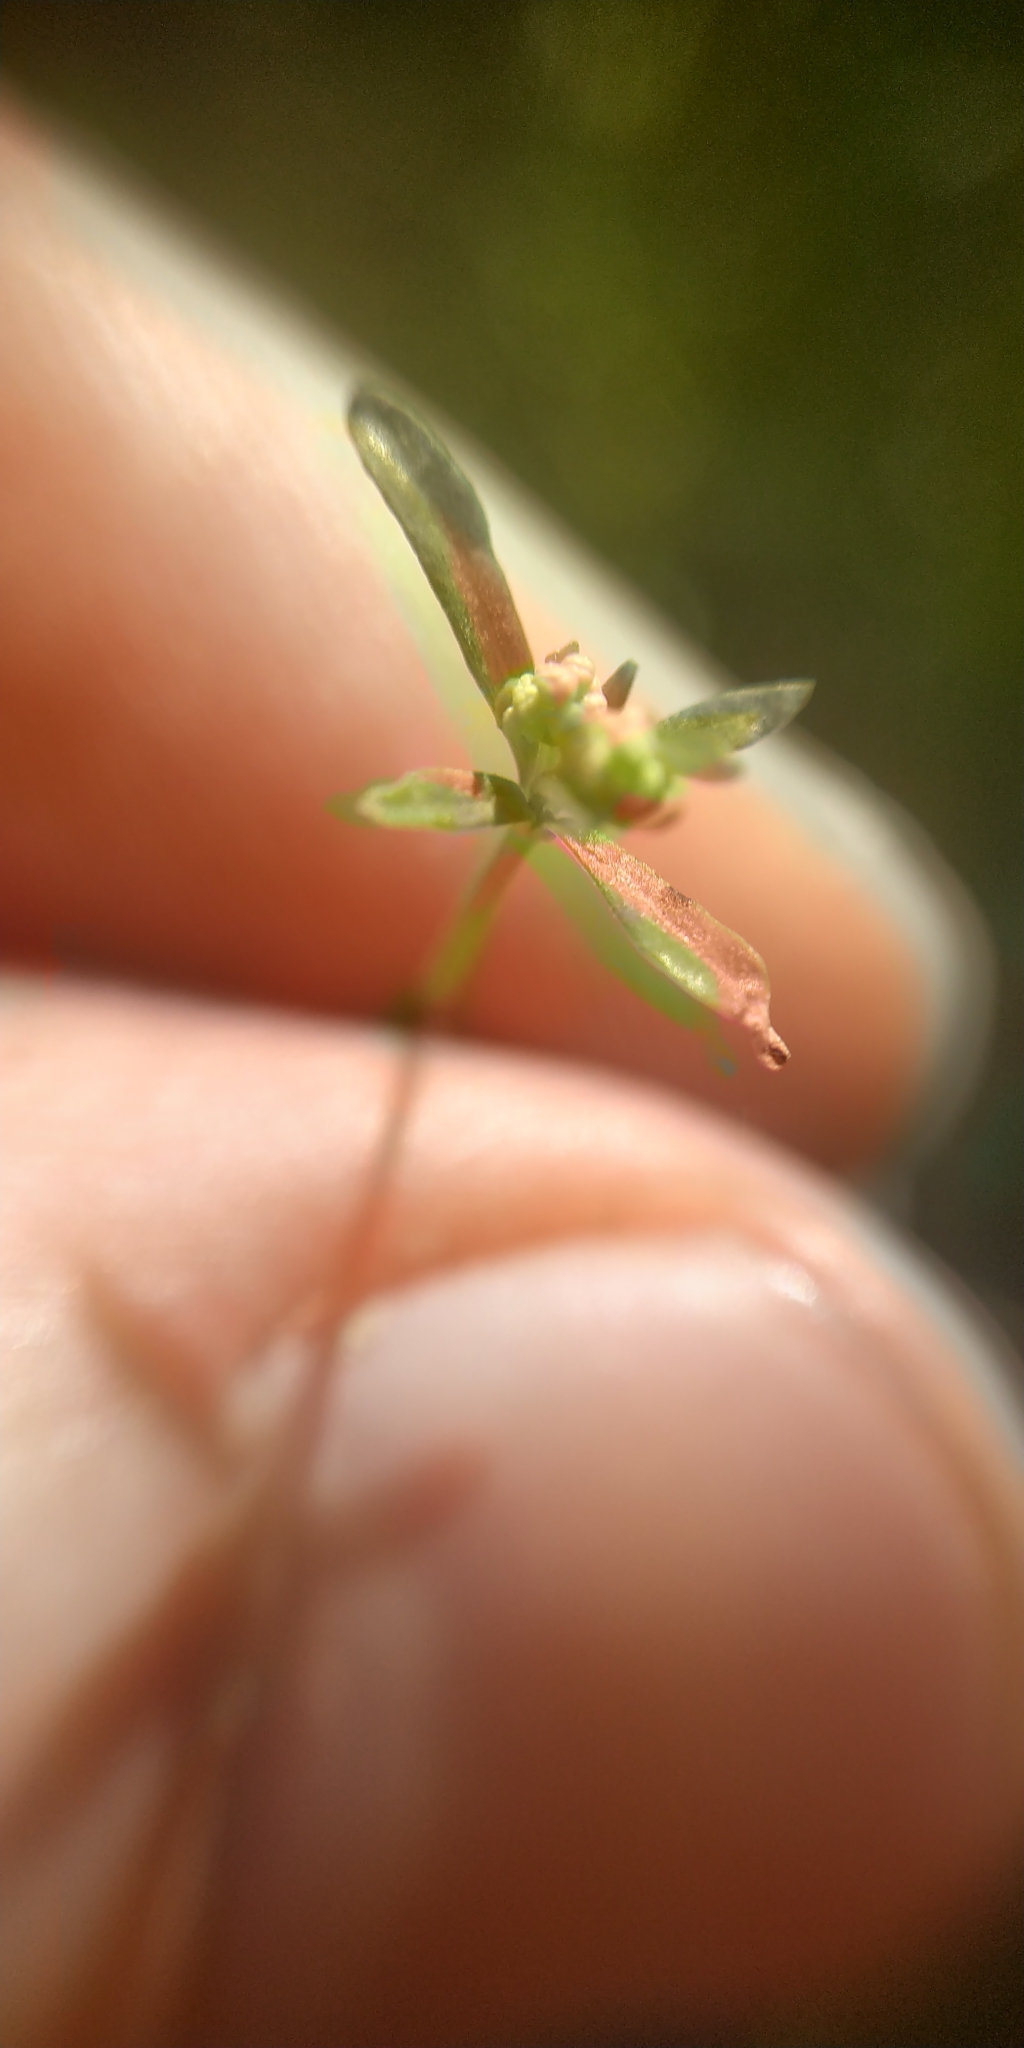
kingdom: Plantae
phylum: Tracheophyta
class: Magnoliopsida
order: Gentianales
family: Rubiaceae
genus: Galium
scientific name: Galium palustre
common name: Common marsh-bedstraw
